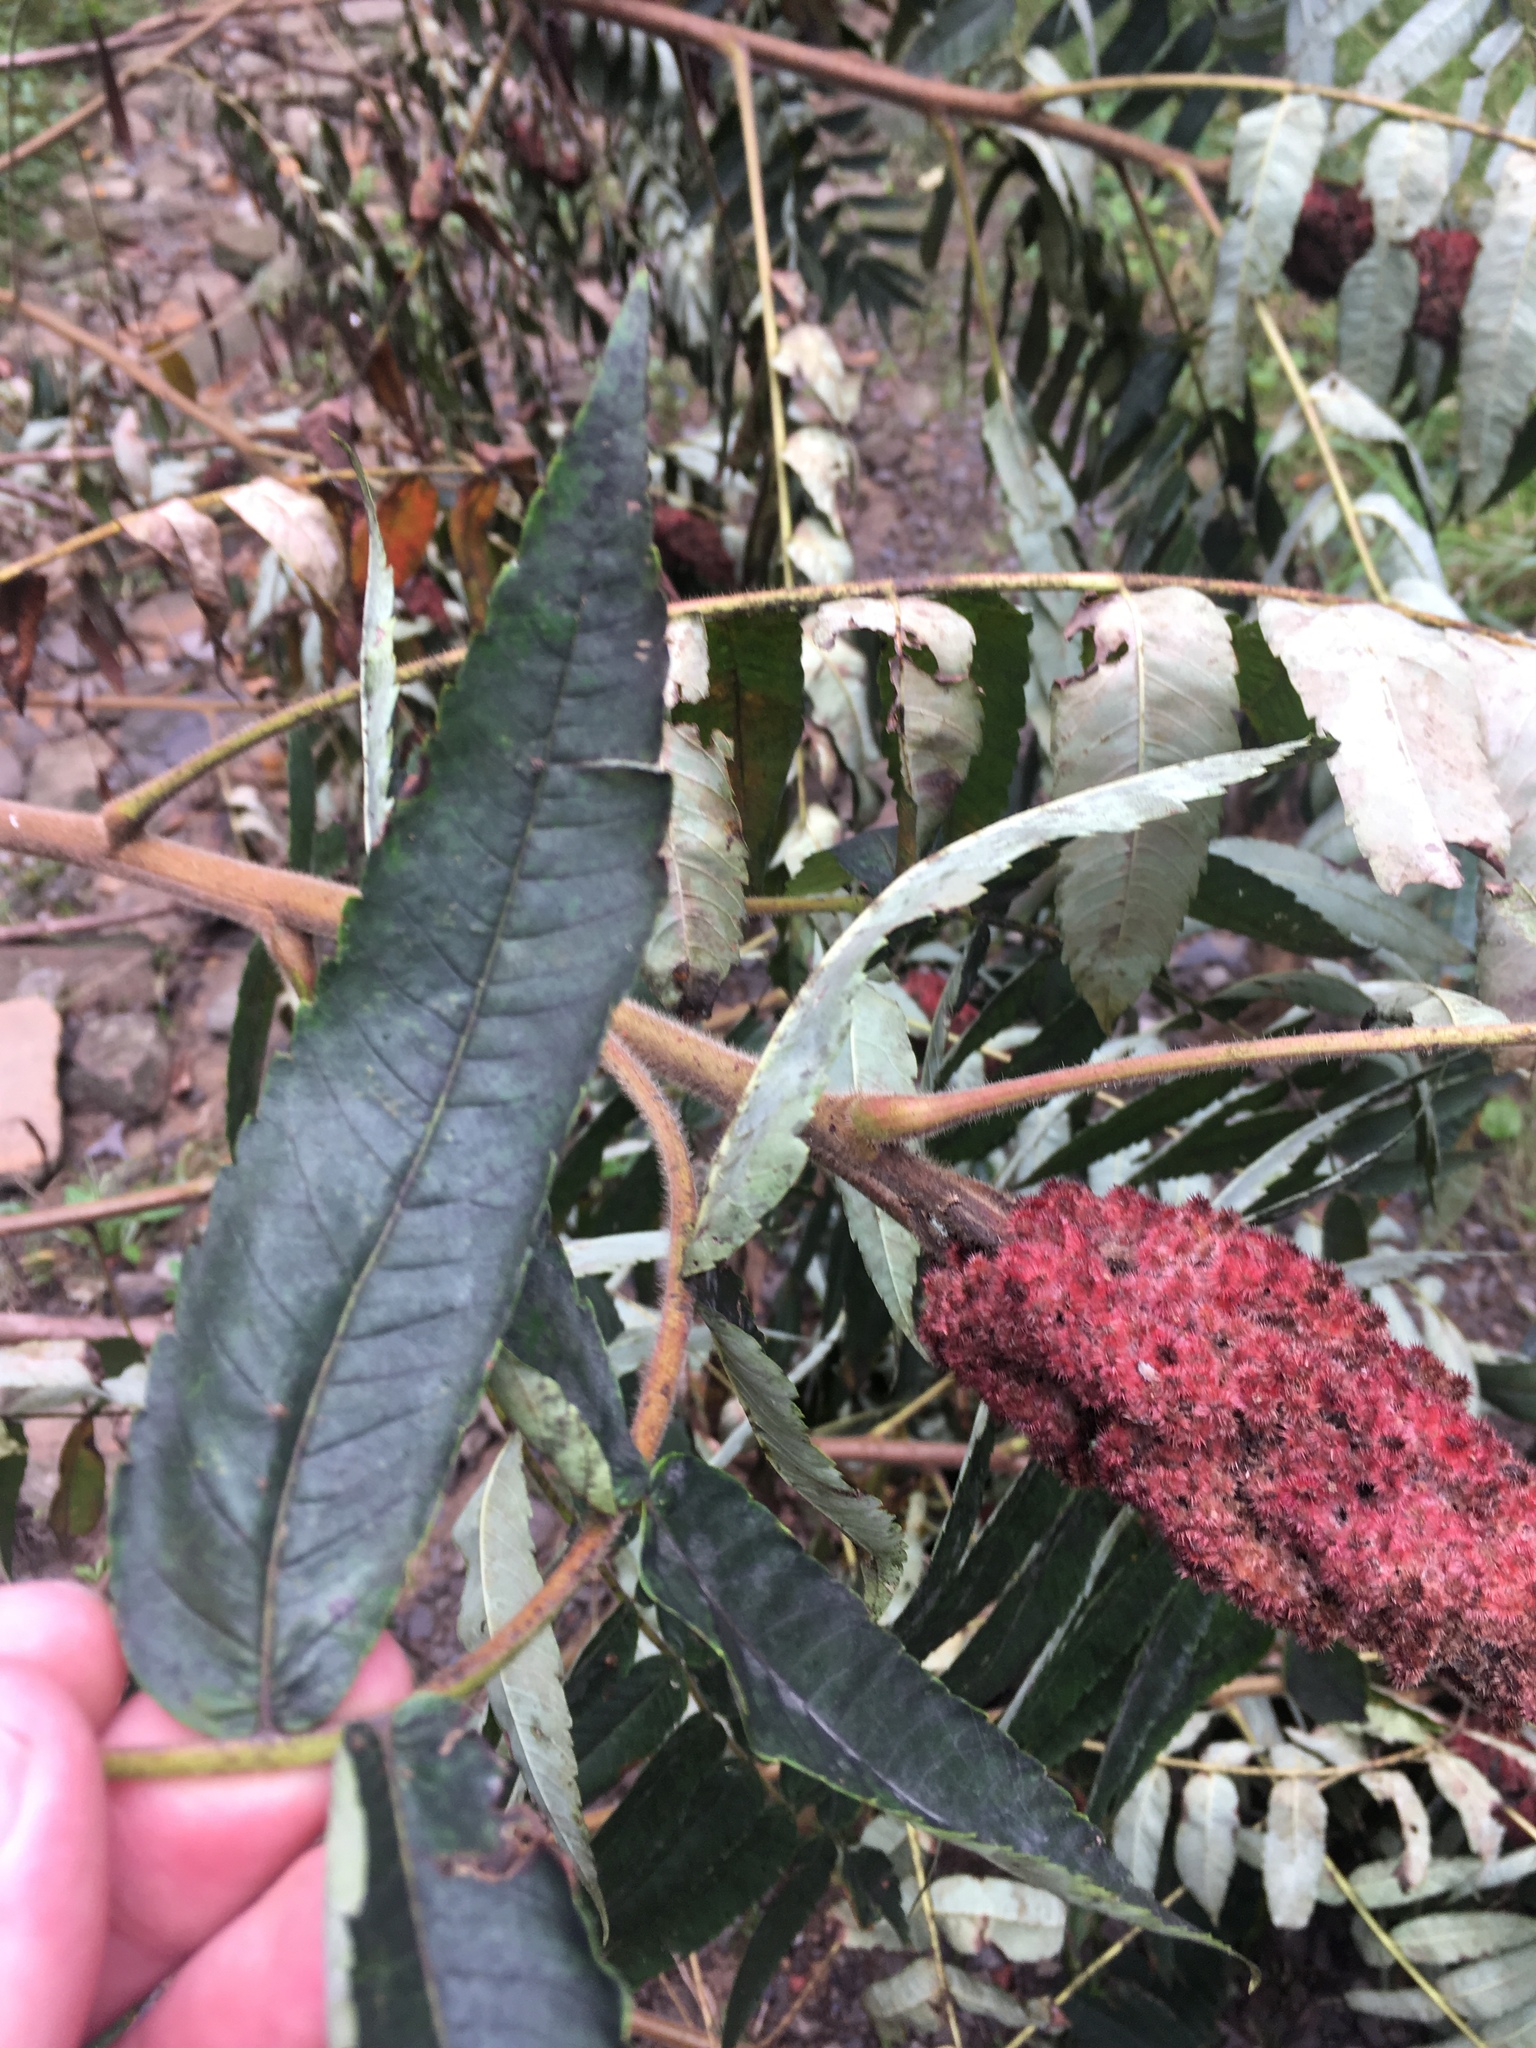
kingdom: Plantae
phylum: Tracheophyta
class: Magnoliopsida
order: Sapindales
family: Anacardiaceae
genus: Rhus
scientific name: Rhus typhina
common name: Staghorn sumac
